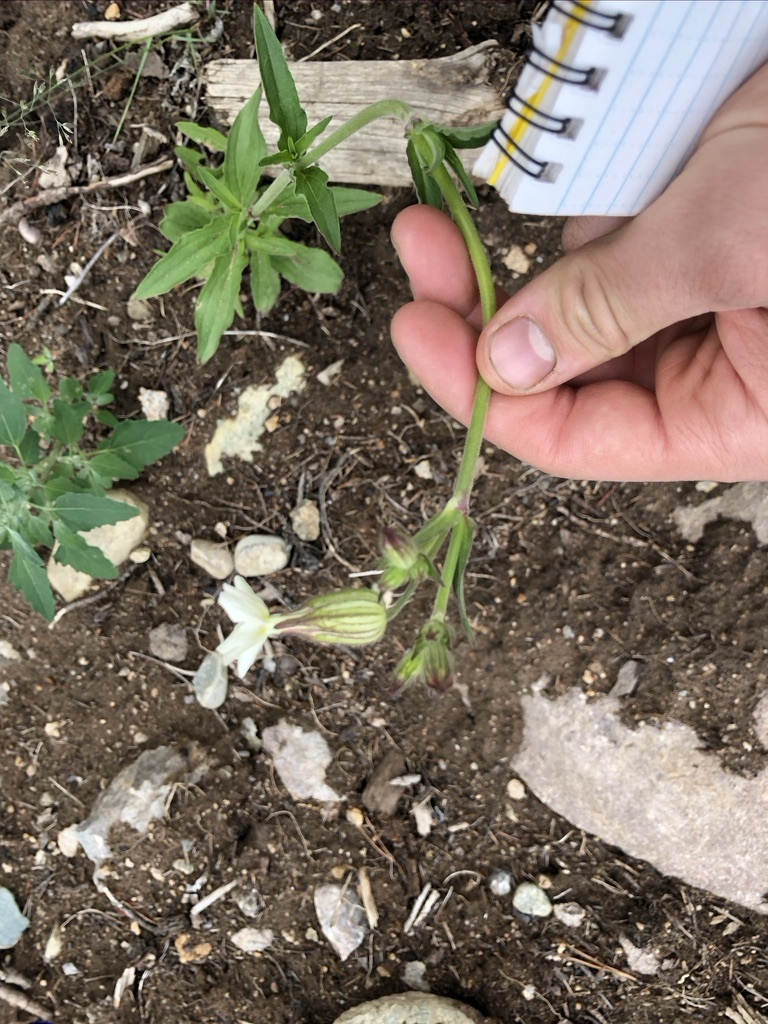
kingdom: Plantae
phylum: Tracheophyta
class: Magnoliopsida
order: Caryophyllales
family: Caryophyllaceae
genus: Silene
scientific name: Silene latifolia
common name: White campion
